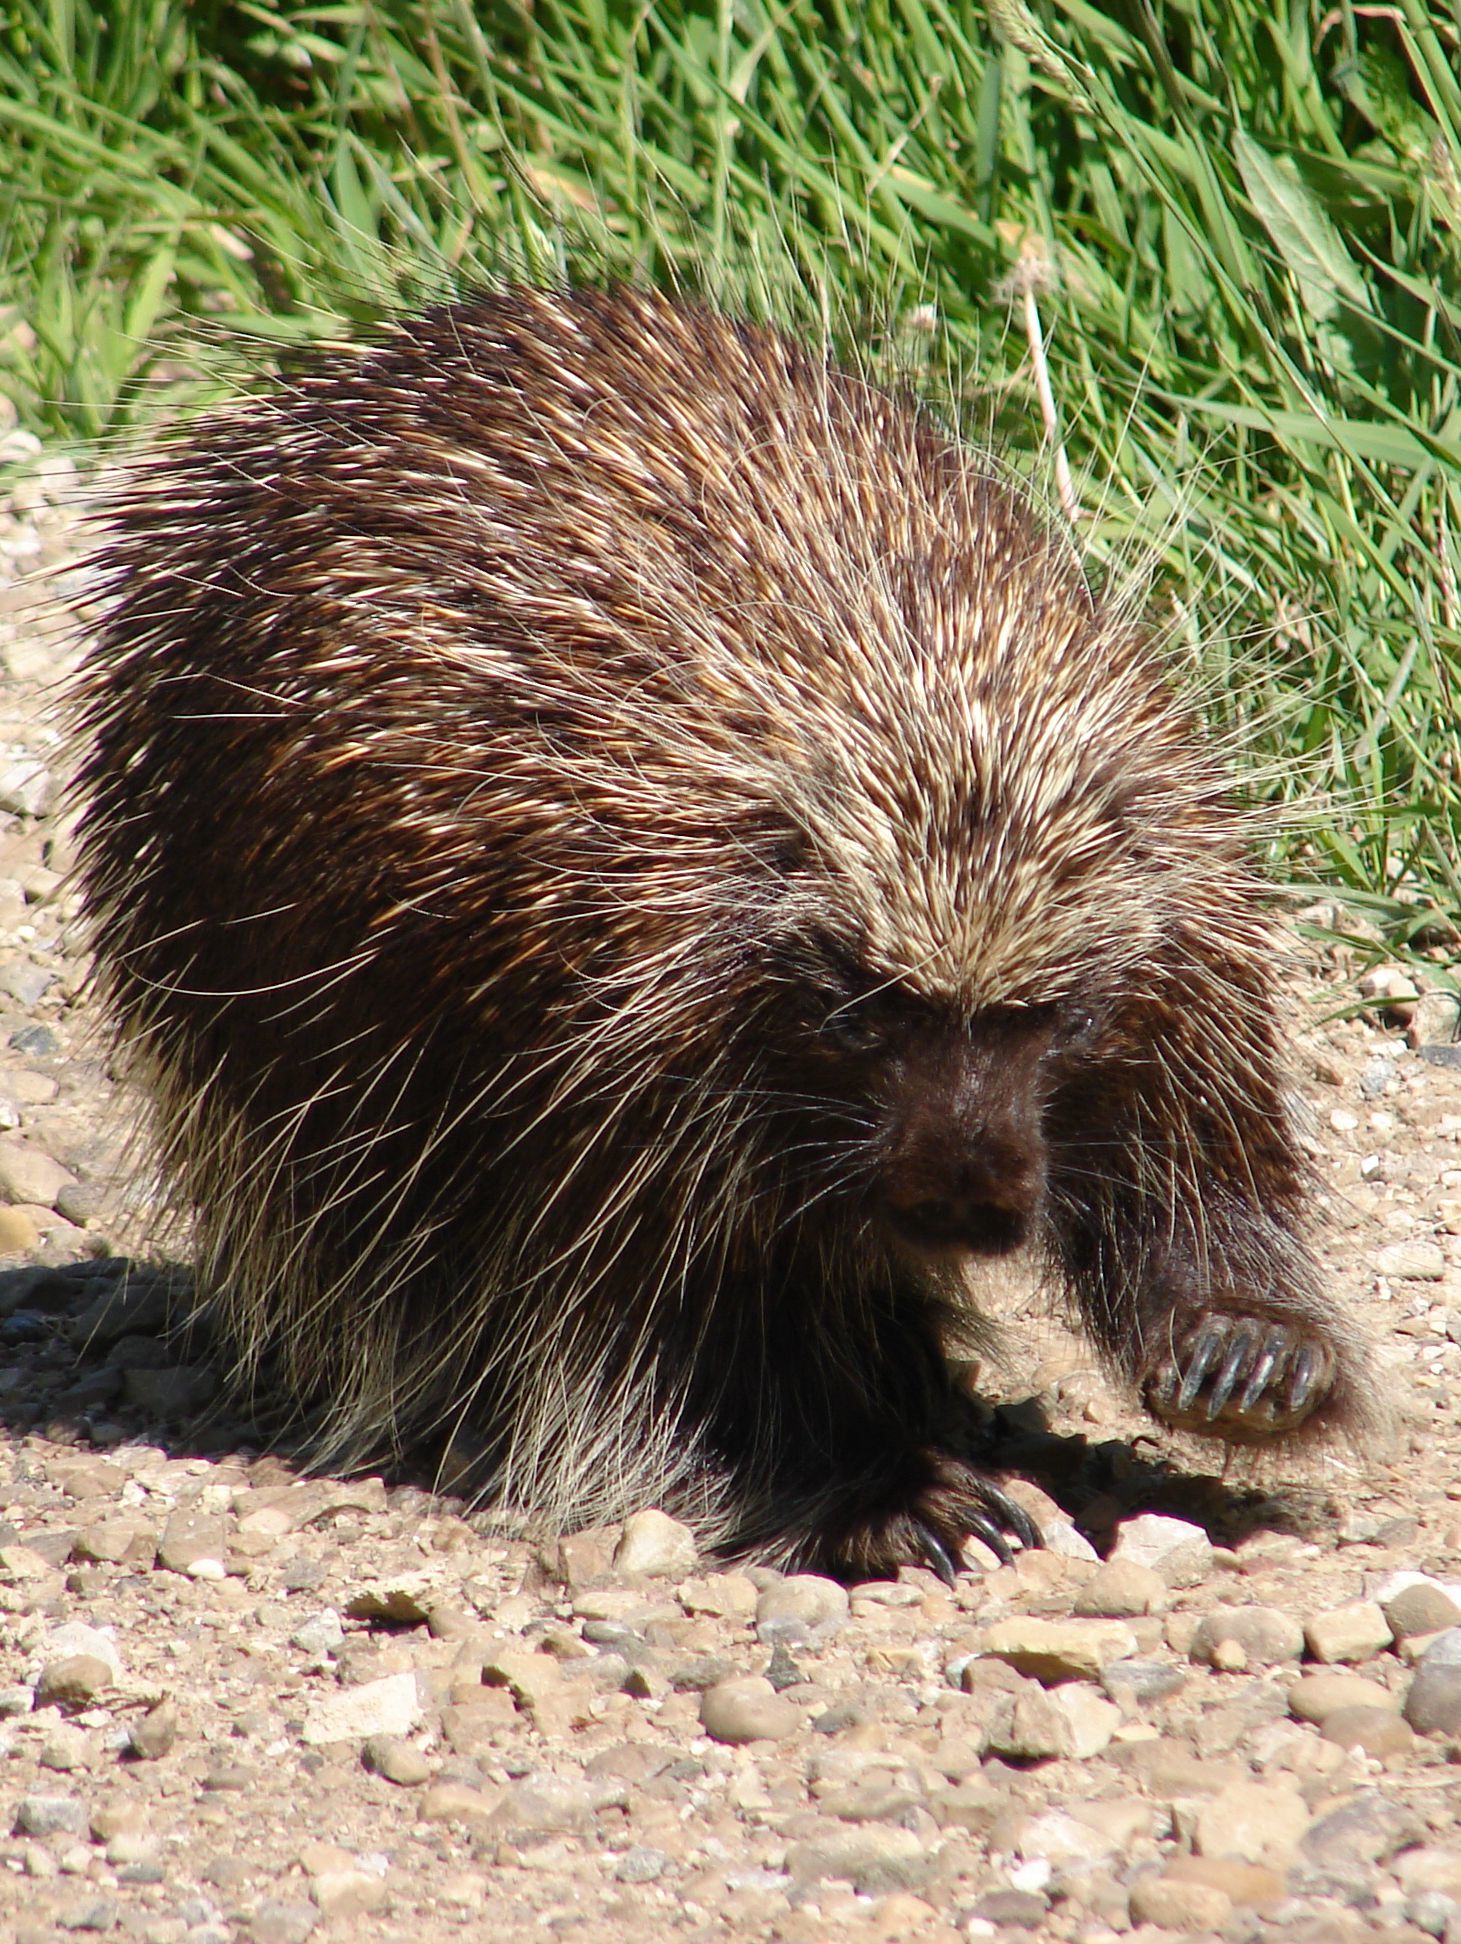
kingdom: Animalia
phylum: Chordata
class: Mammalia
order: Rodentia
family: Erethizontidae
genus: Erethizon
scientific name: Erethizon dorsatus
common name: North american porcupine
